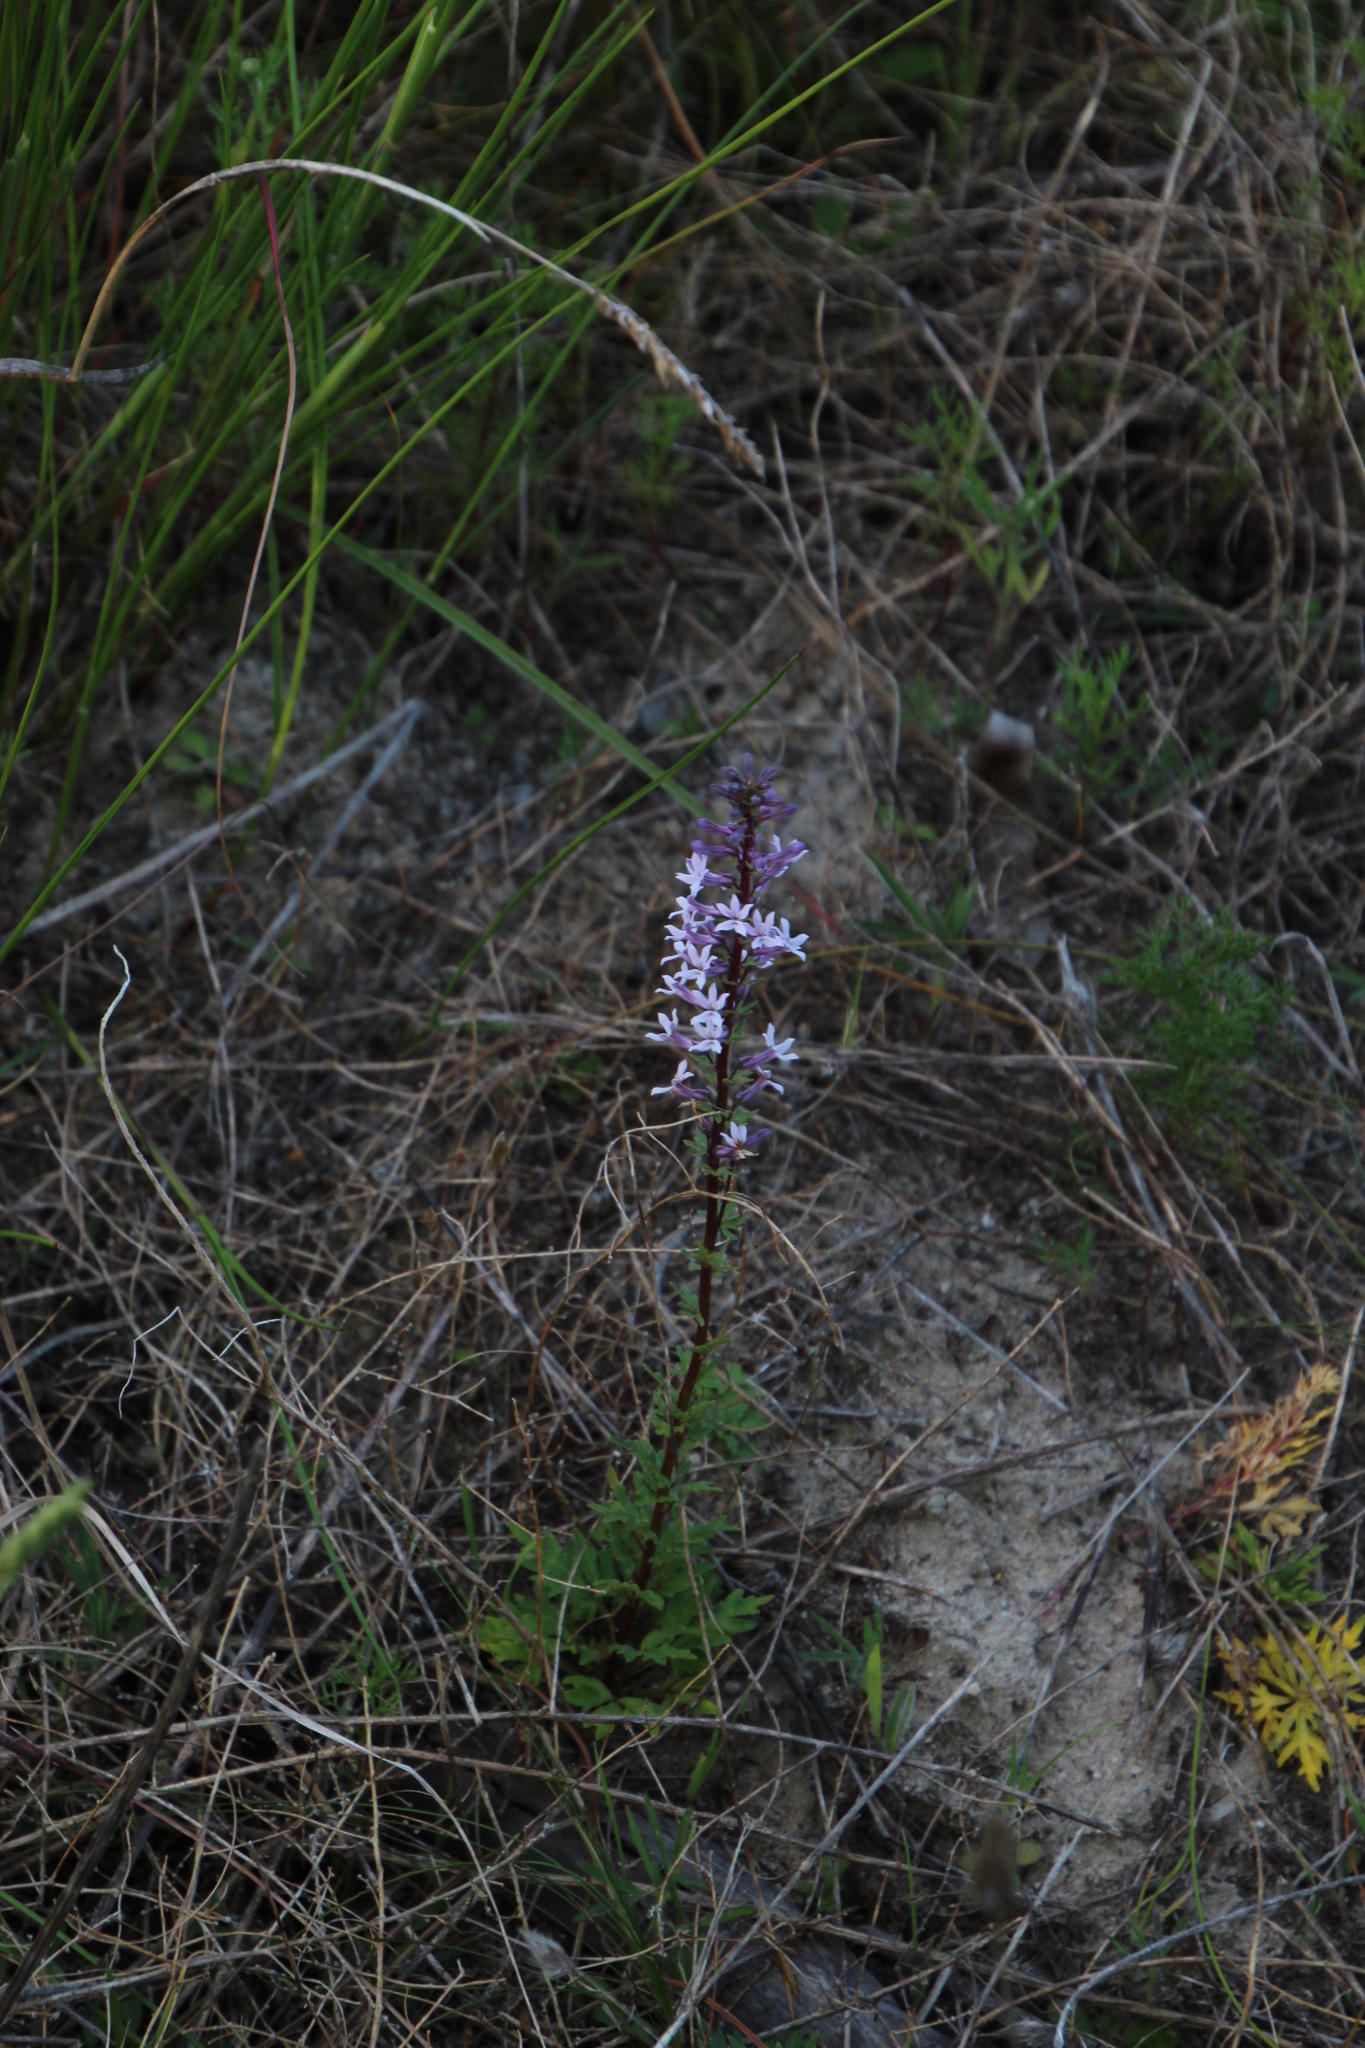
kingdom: Plantae
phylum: Tracheophyta
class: Magnoliopsida
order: Asterales
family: Campanulaceae
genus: Cyphia
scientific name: Cyphia bulbosa
